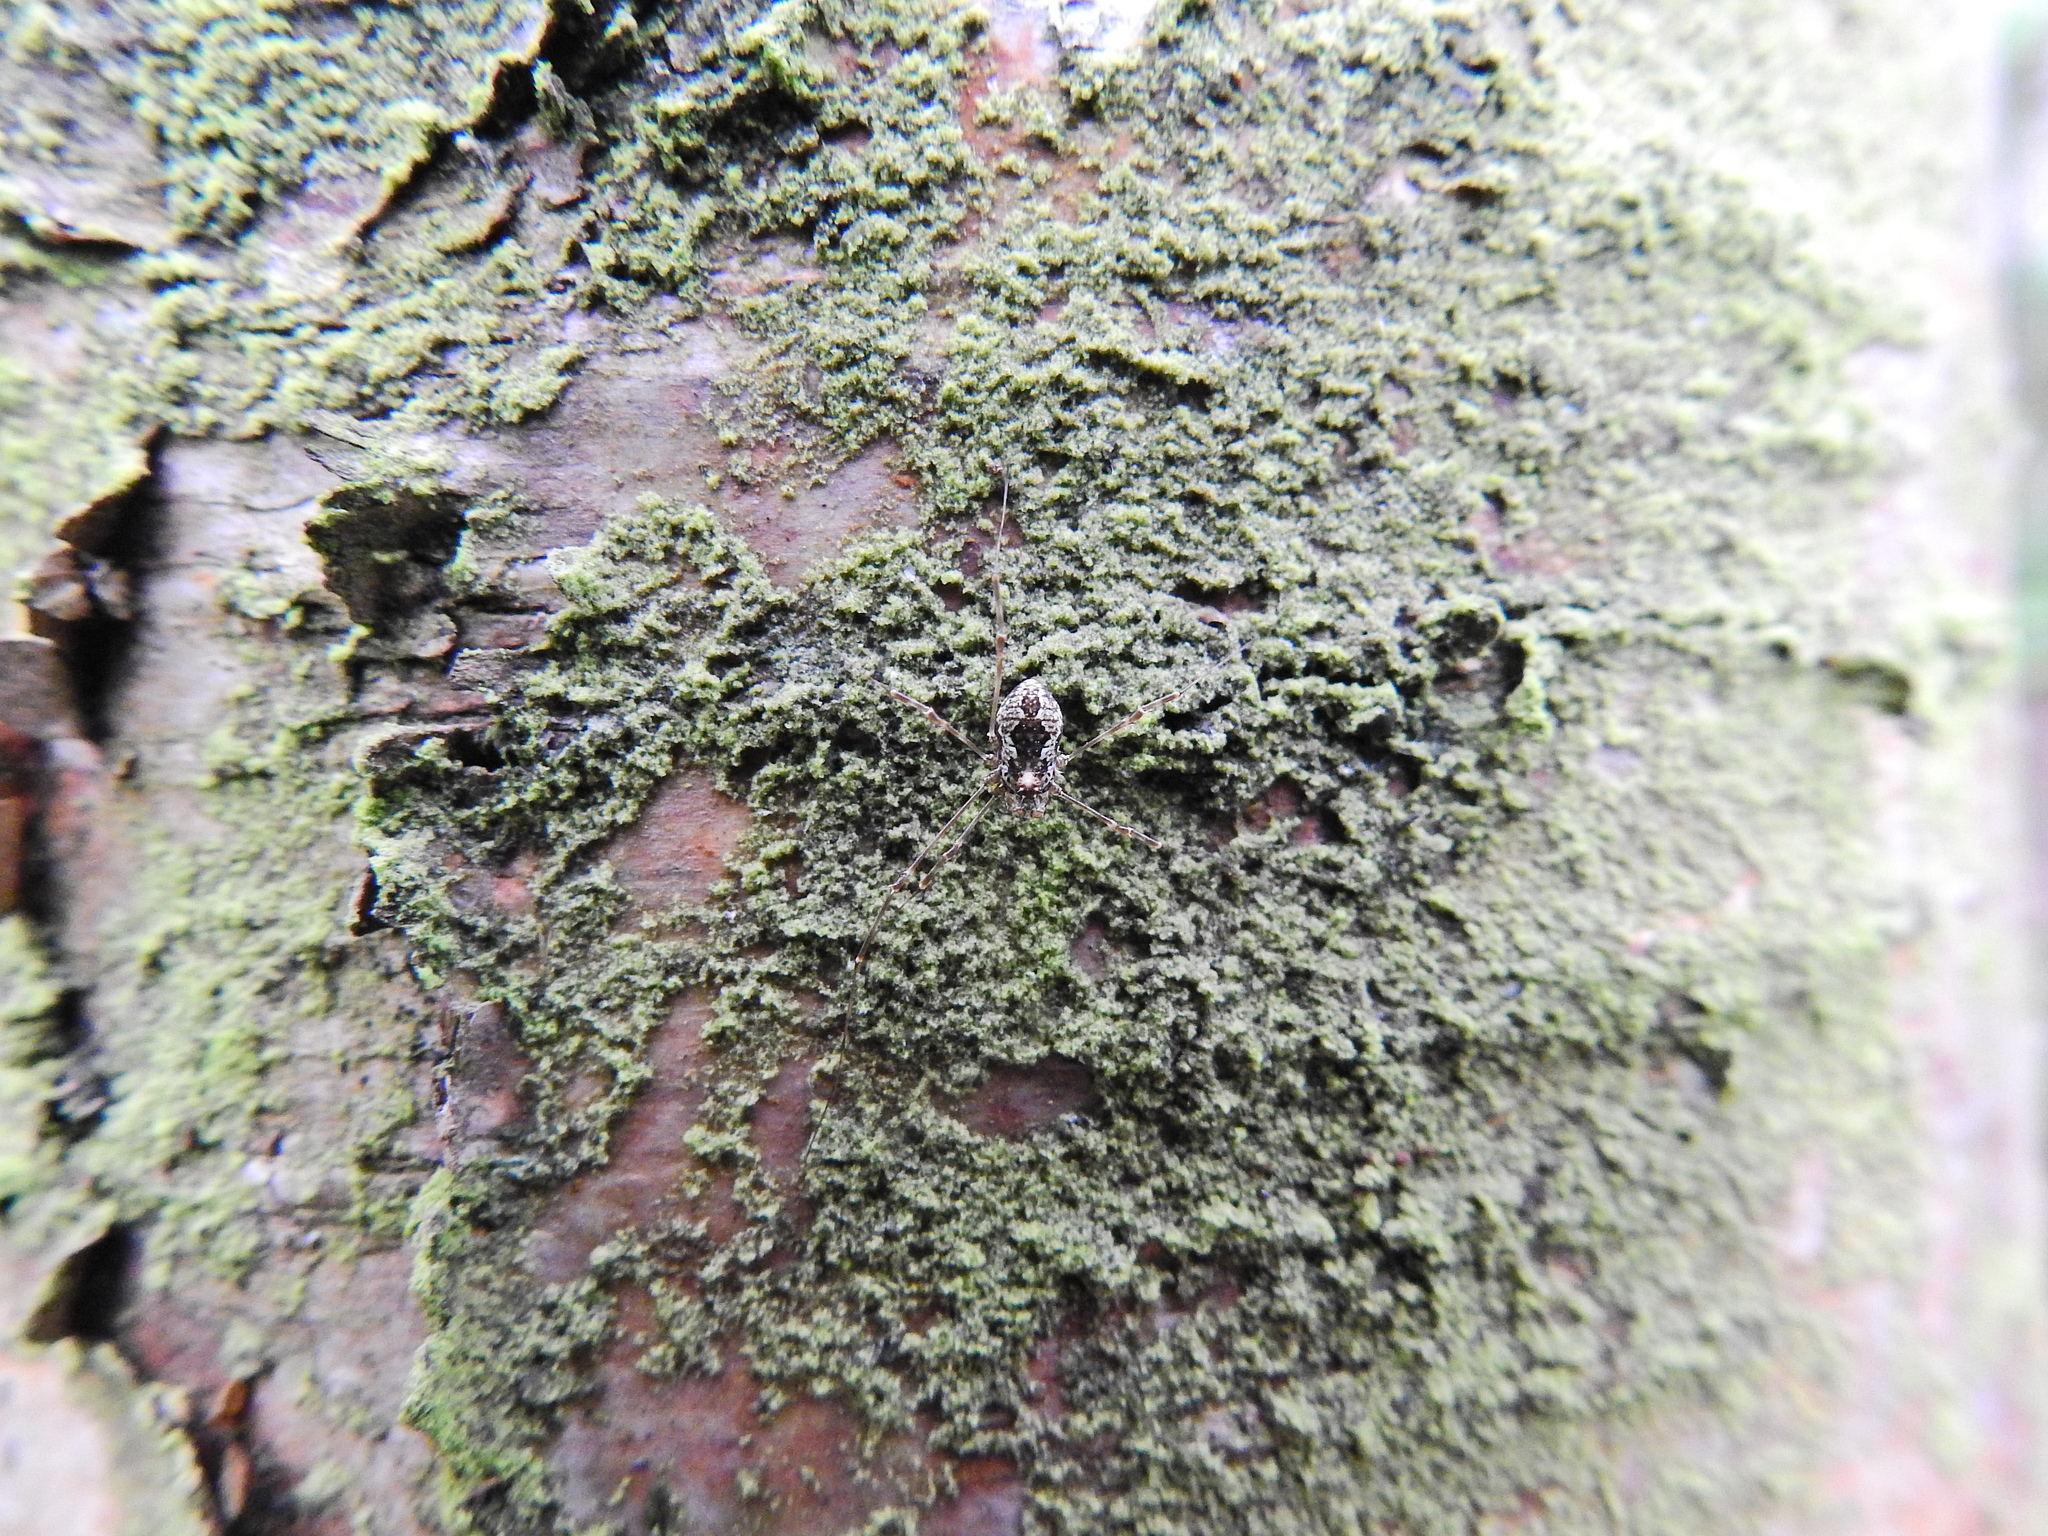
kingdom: Animalia
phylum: Arthropoda
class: Arachnida
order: Opiliones
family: Phalangiidae
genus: Megabunus
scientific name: Megabunus diadema
